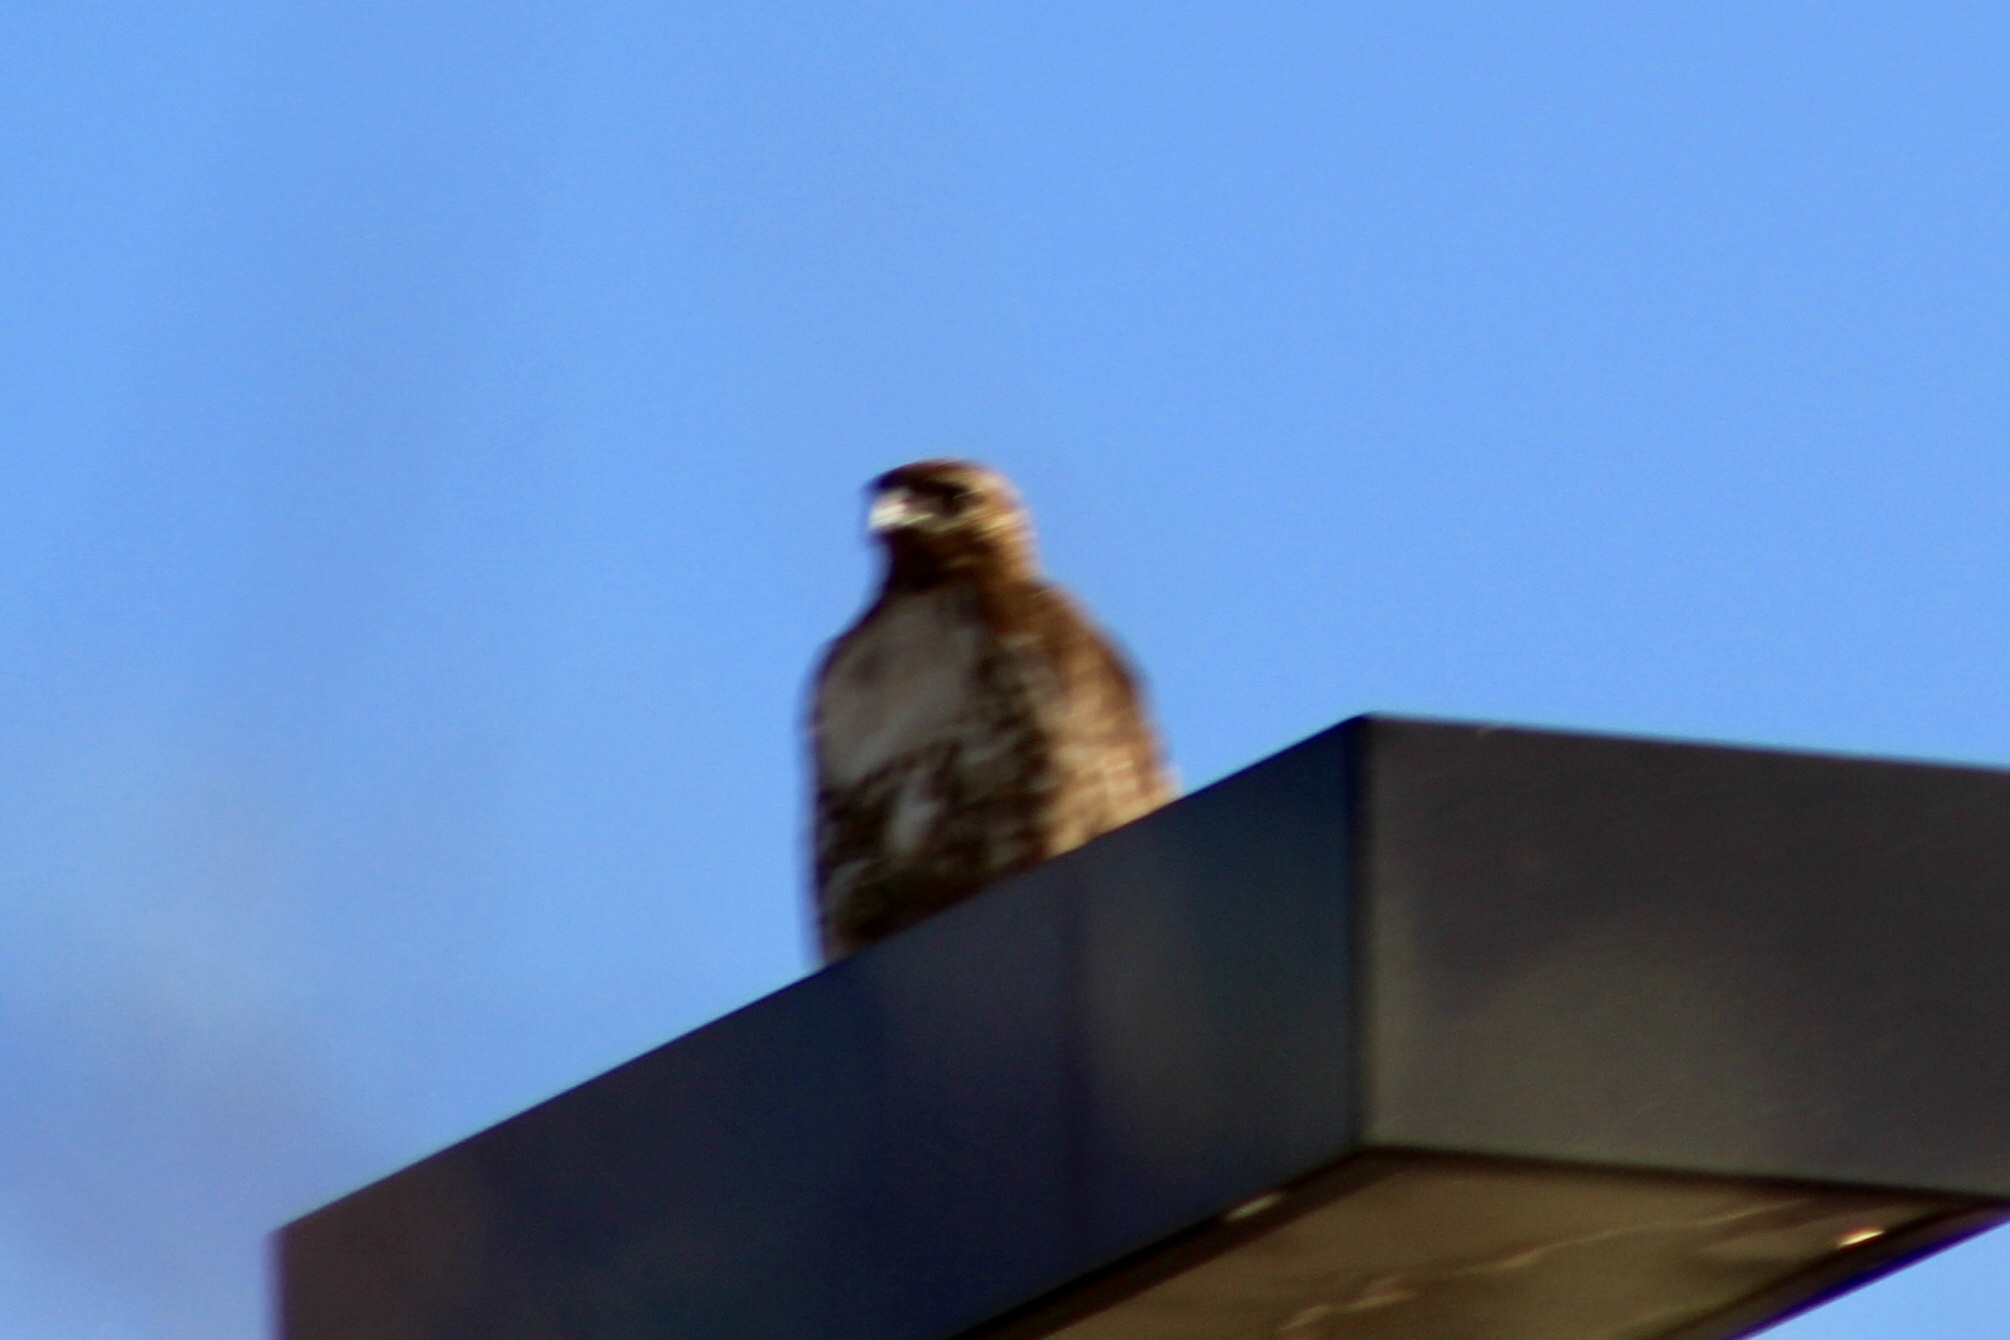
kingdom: Animalia
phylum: Chordata
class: Aves
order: Accipitriformes
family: Accipitridae
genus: Buteo
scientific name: Buteo jamaicensis
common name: Red-tailed hawk
